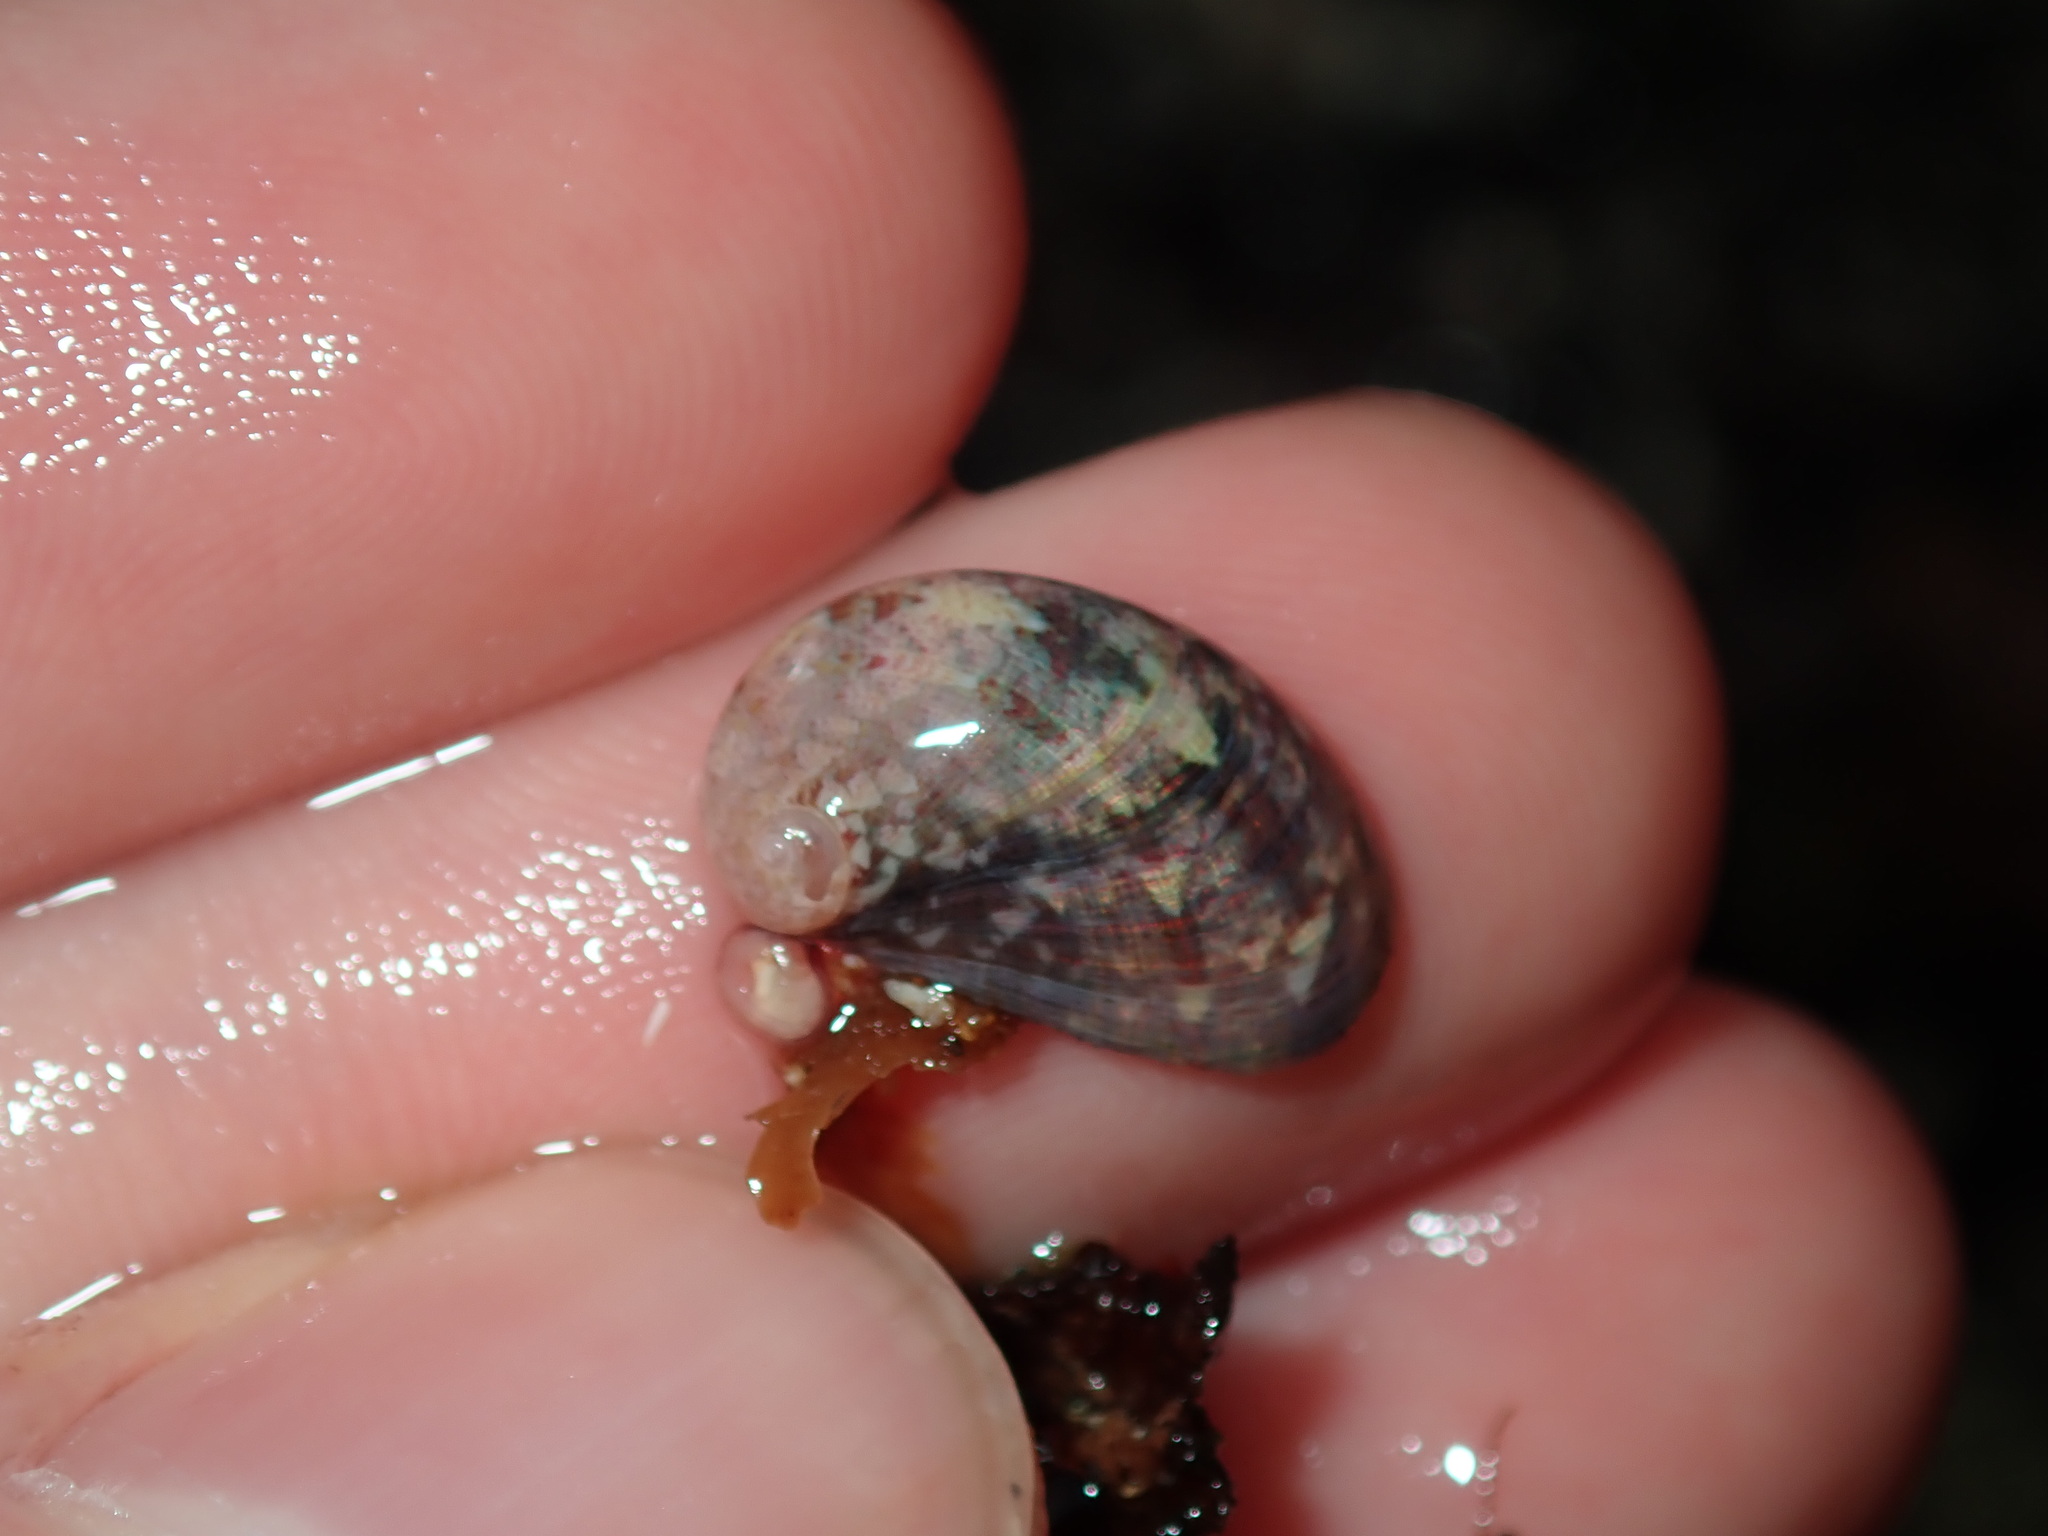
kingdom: Animalia
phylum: Mollusca
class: Gastropoda
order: Trochida
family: Trochidae
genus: Stomatella
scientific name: Stomatella impertusa
